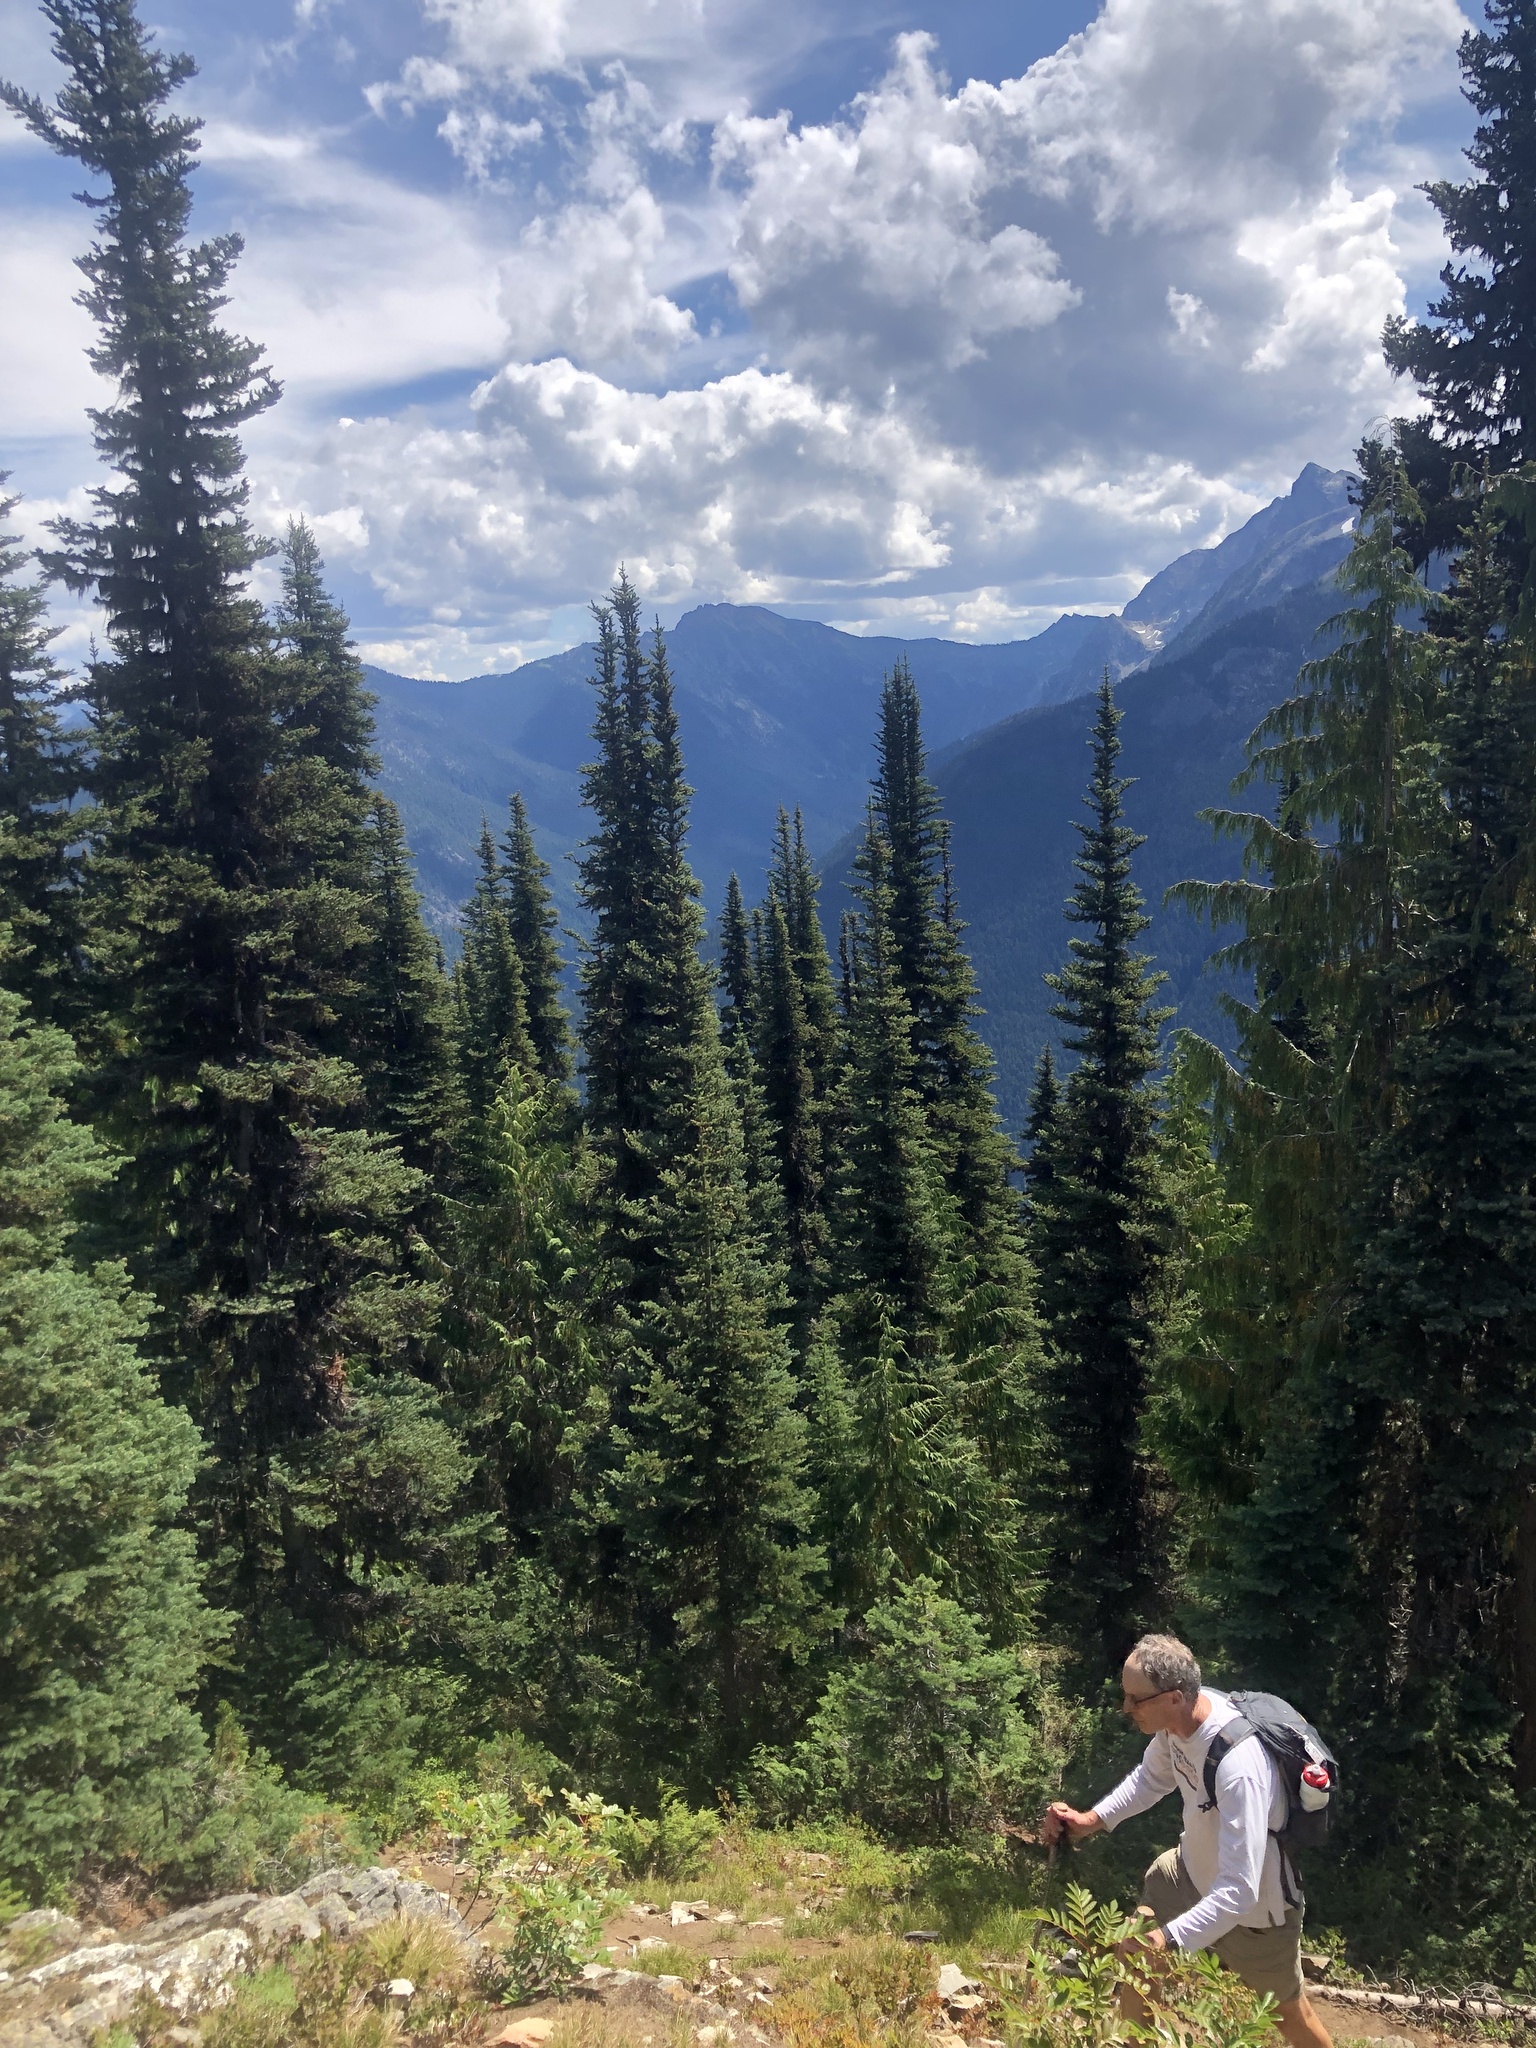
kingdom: Plantae
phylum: Tracheophyta
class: Pinopsida
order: Pinales
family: Pinaceae
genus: Abies
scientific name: Abies lasiocarpa
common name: Subalpine fir
